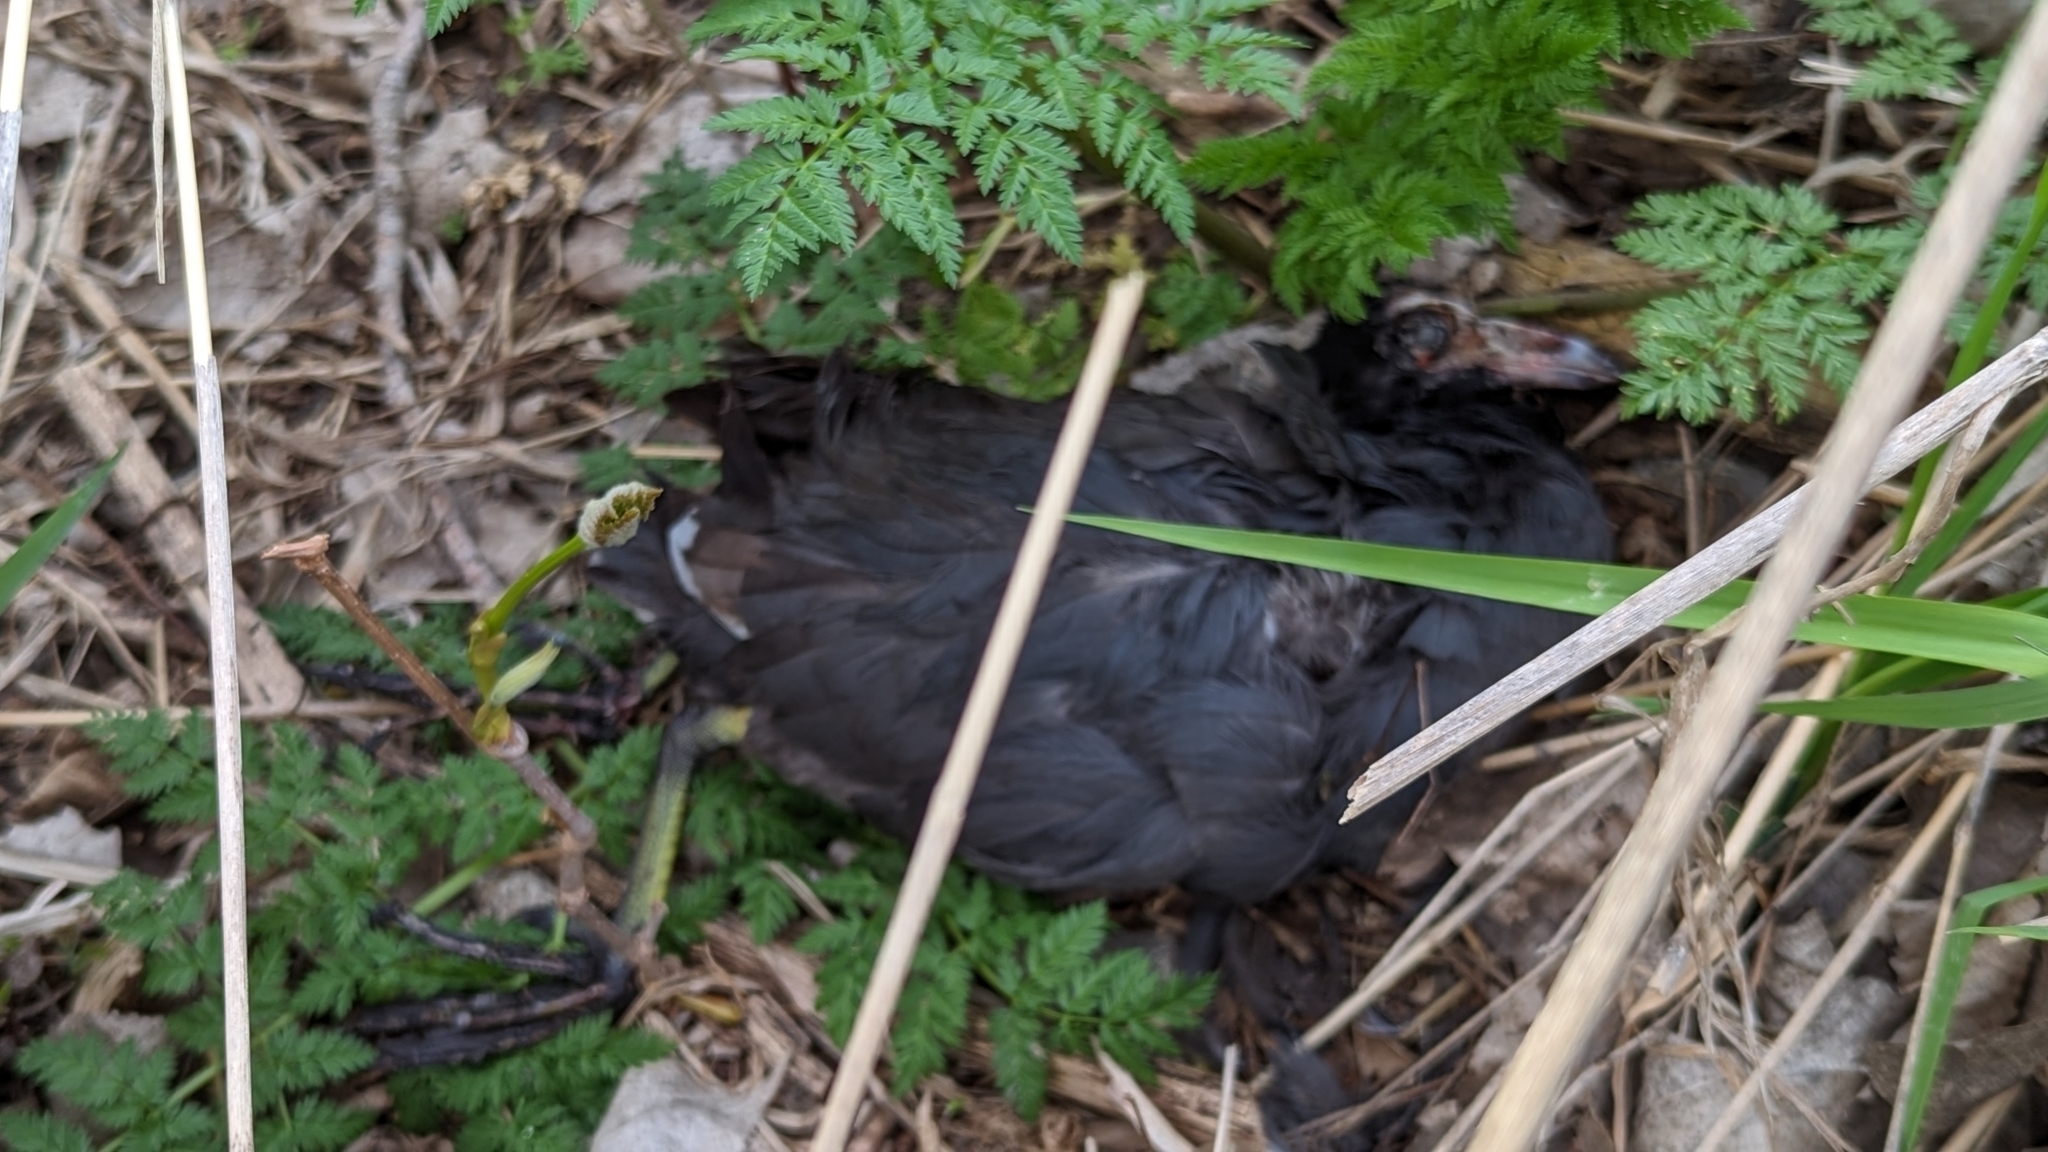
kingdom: Animalia
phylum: Chordata
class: Aves
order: Gruiformes
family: Rallidae
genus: Fulica
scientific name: Fulica americana
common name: American coot
